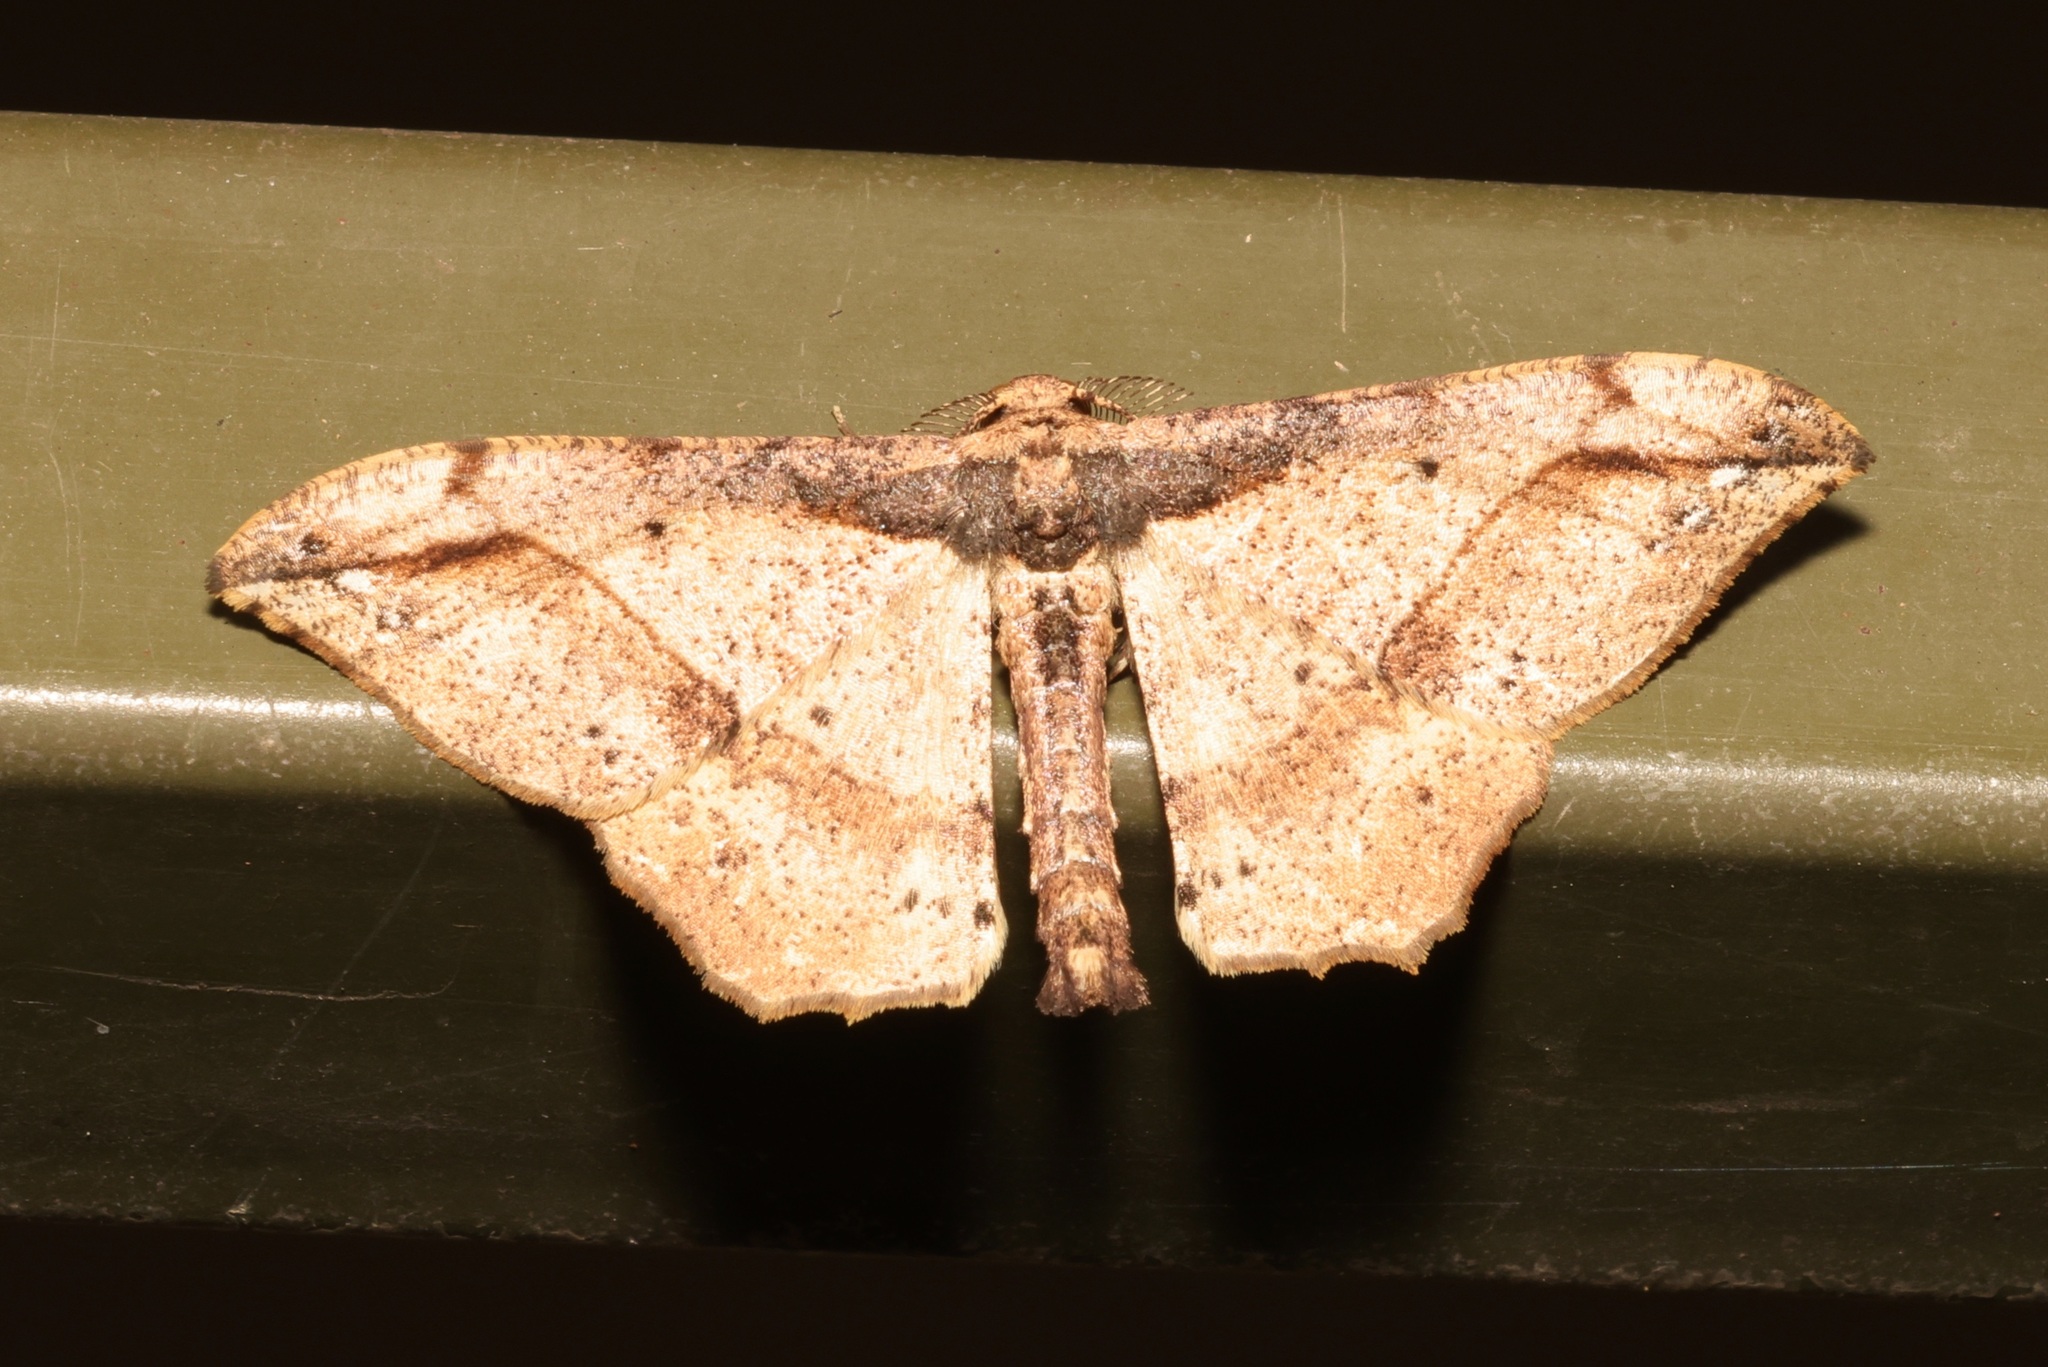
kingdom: Animalia
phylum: Arthropoda
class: Insecta
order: Lepidoptera
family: Geometridae
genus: Hyposidra
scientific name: Hyposidra infixaria
